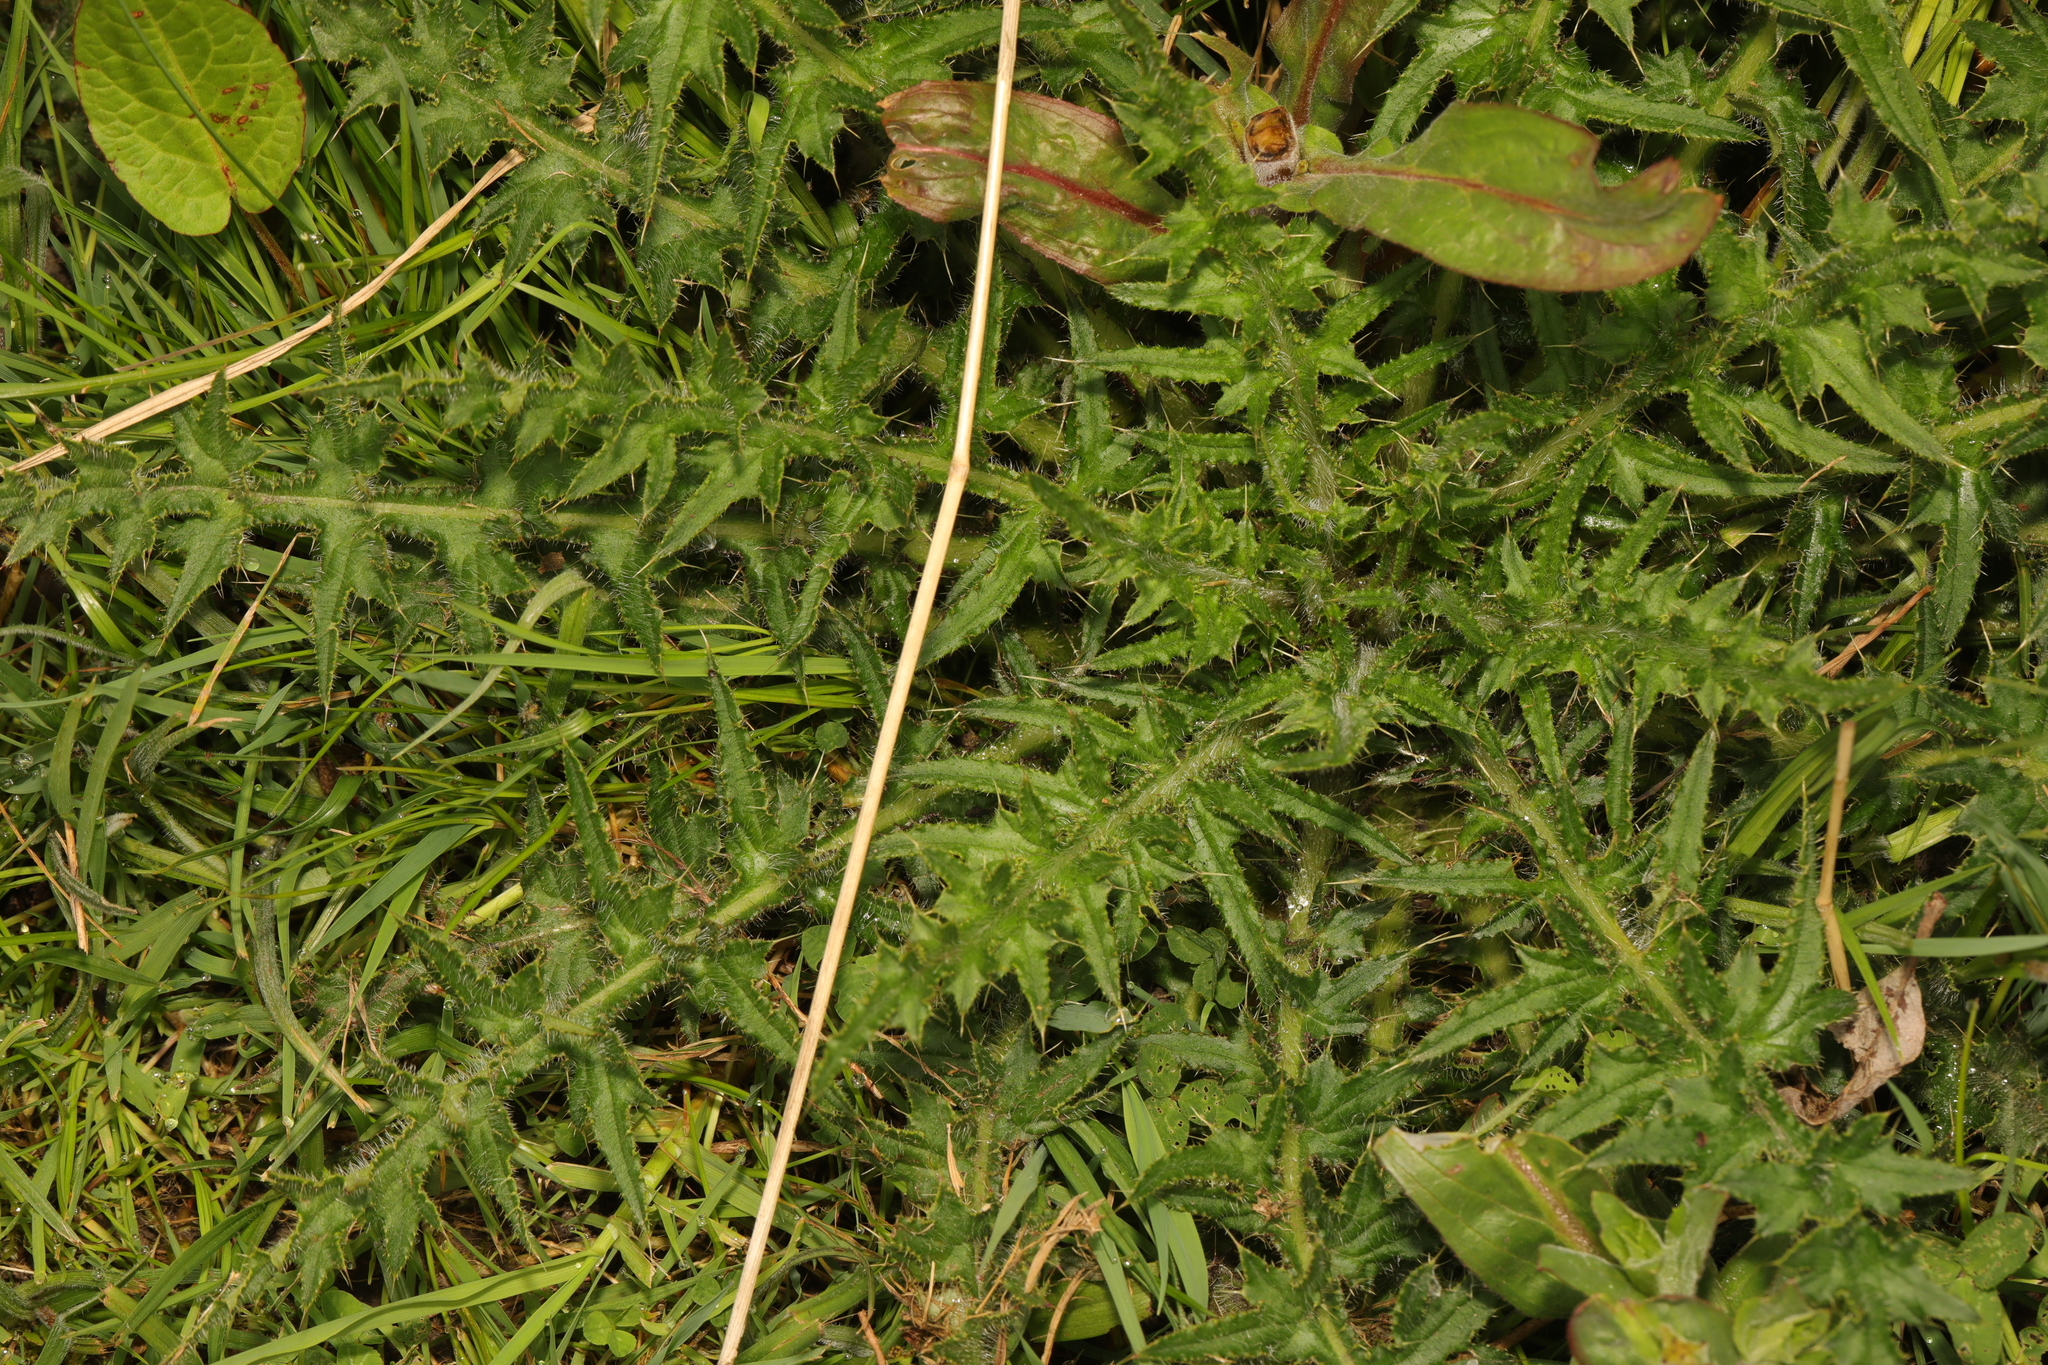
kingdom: Plantae
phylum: Tracheophyta
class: Magnoliopsida
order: Asterales
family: Asteraceae
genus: Cirsium
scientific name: Cirsium palustre
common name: Marsh thistle
